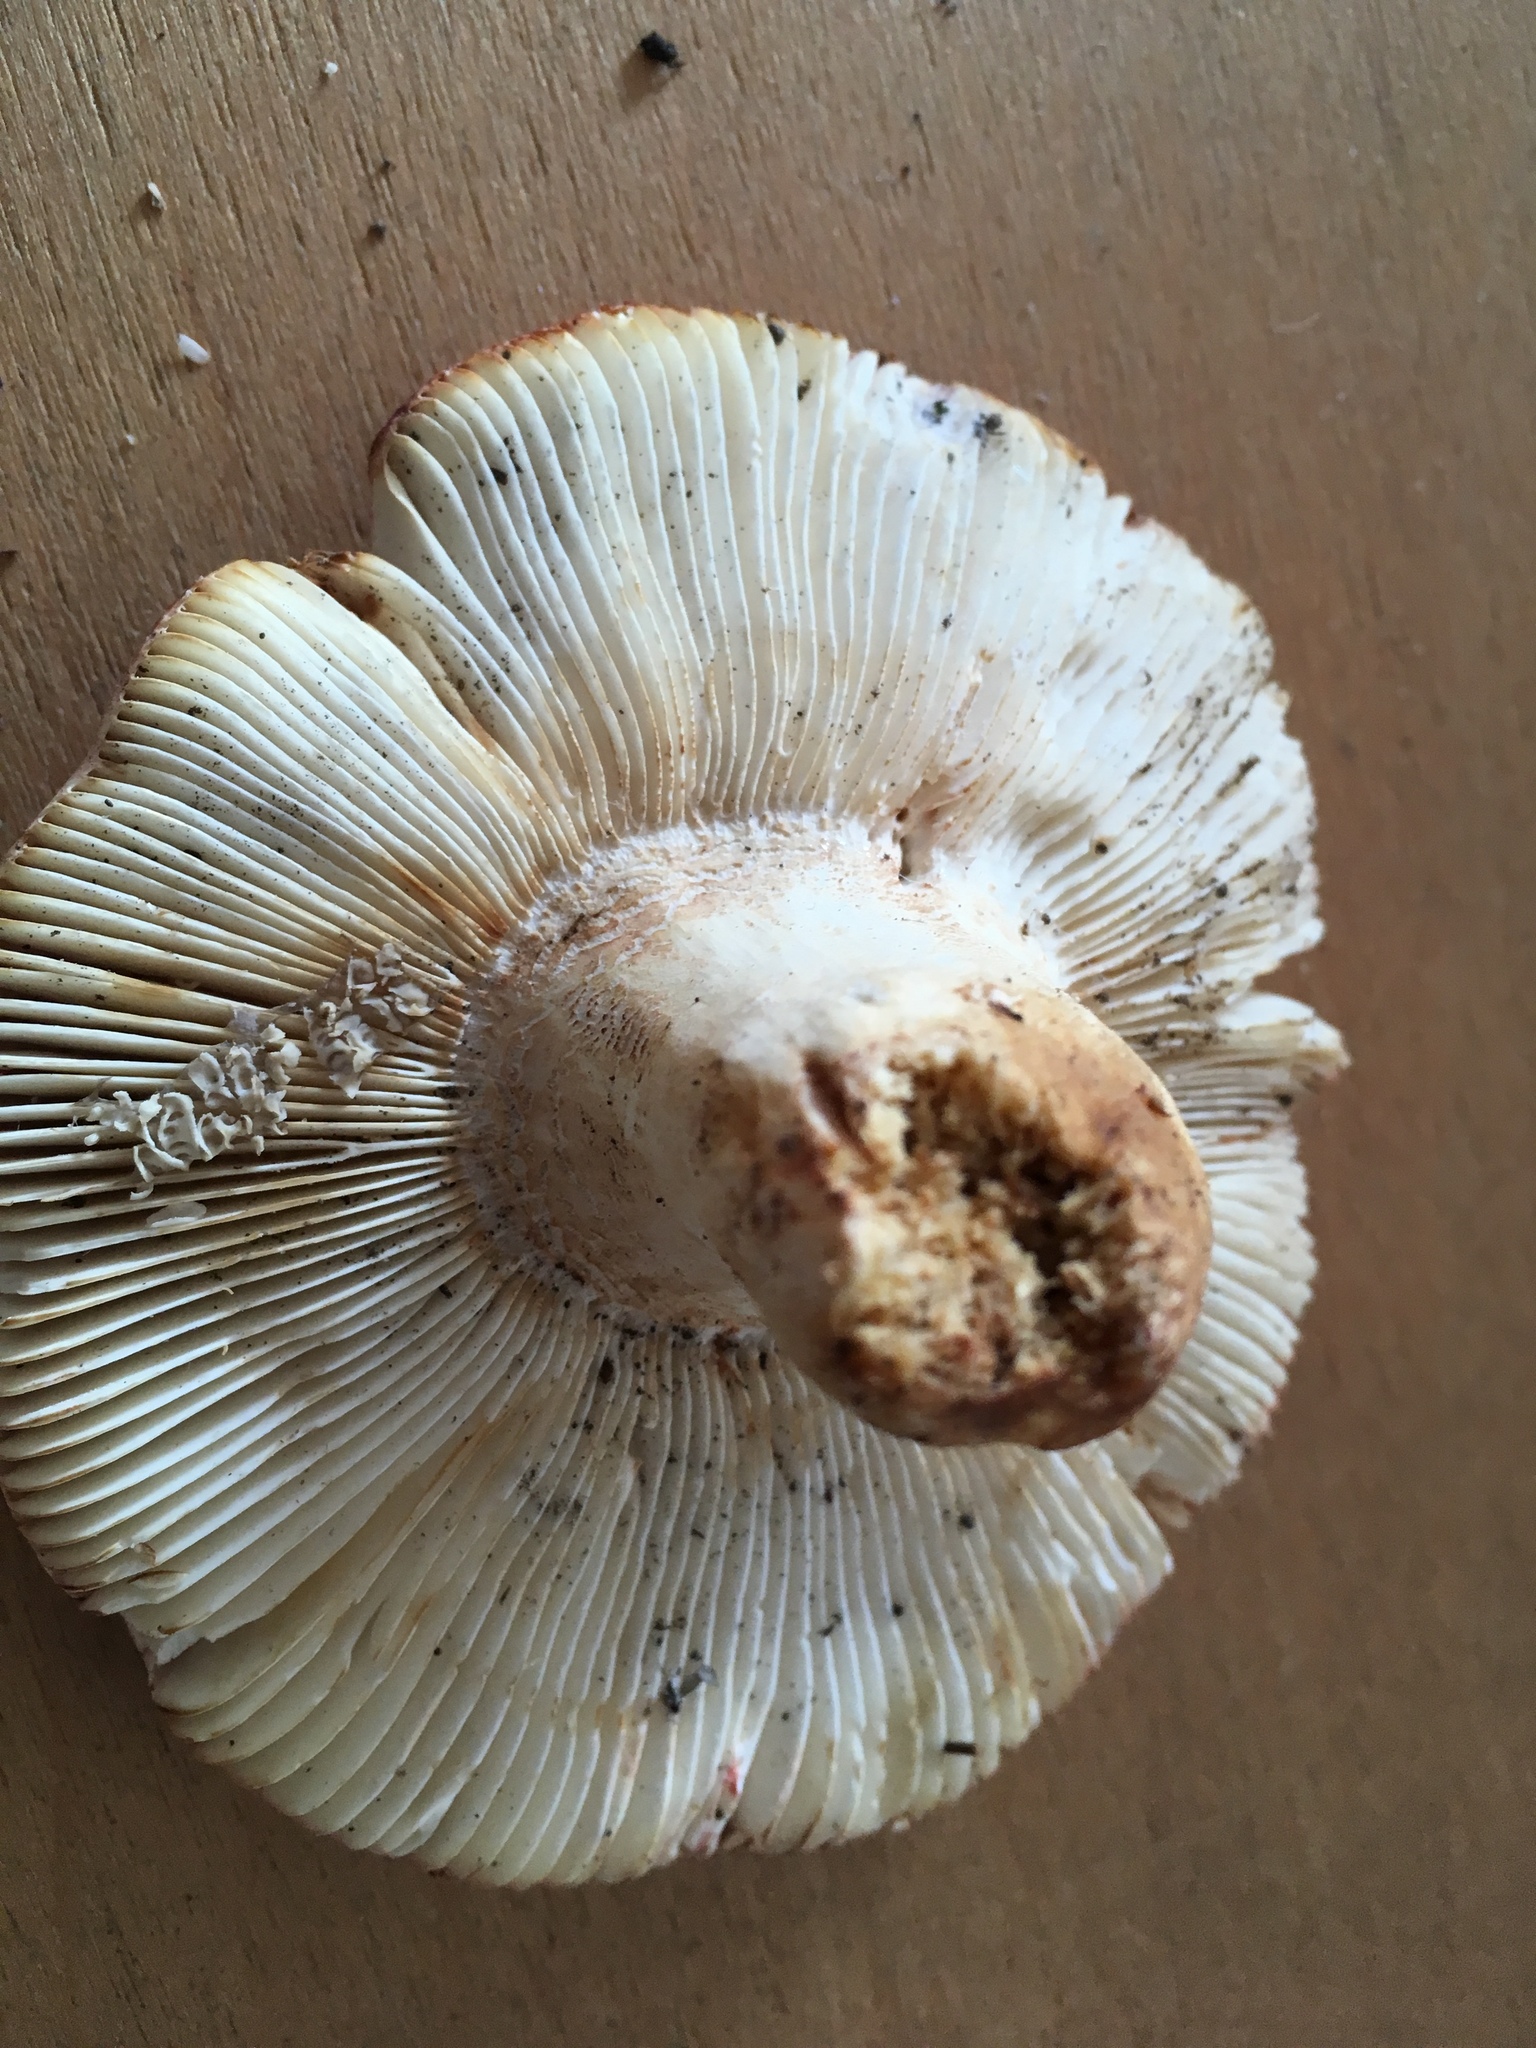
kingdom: Fungi
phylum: Basidiomycota
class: Agaricomycetes
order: Russulales
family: Russulaceae
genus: Russula
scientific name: Russula flavisiccans
